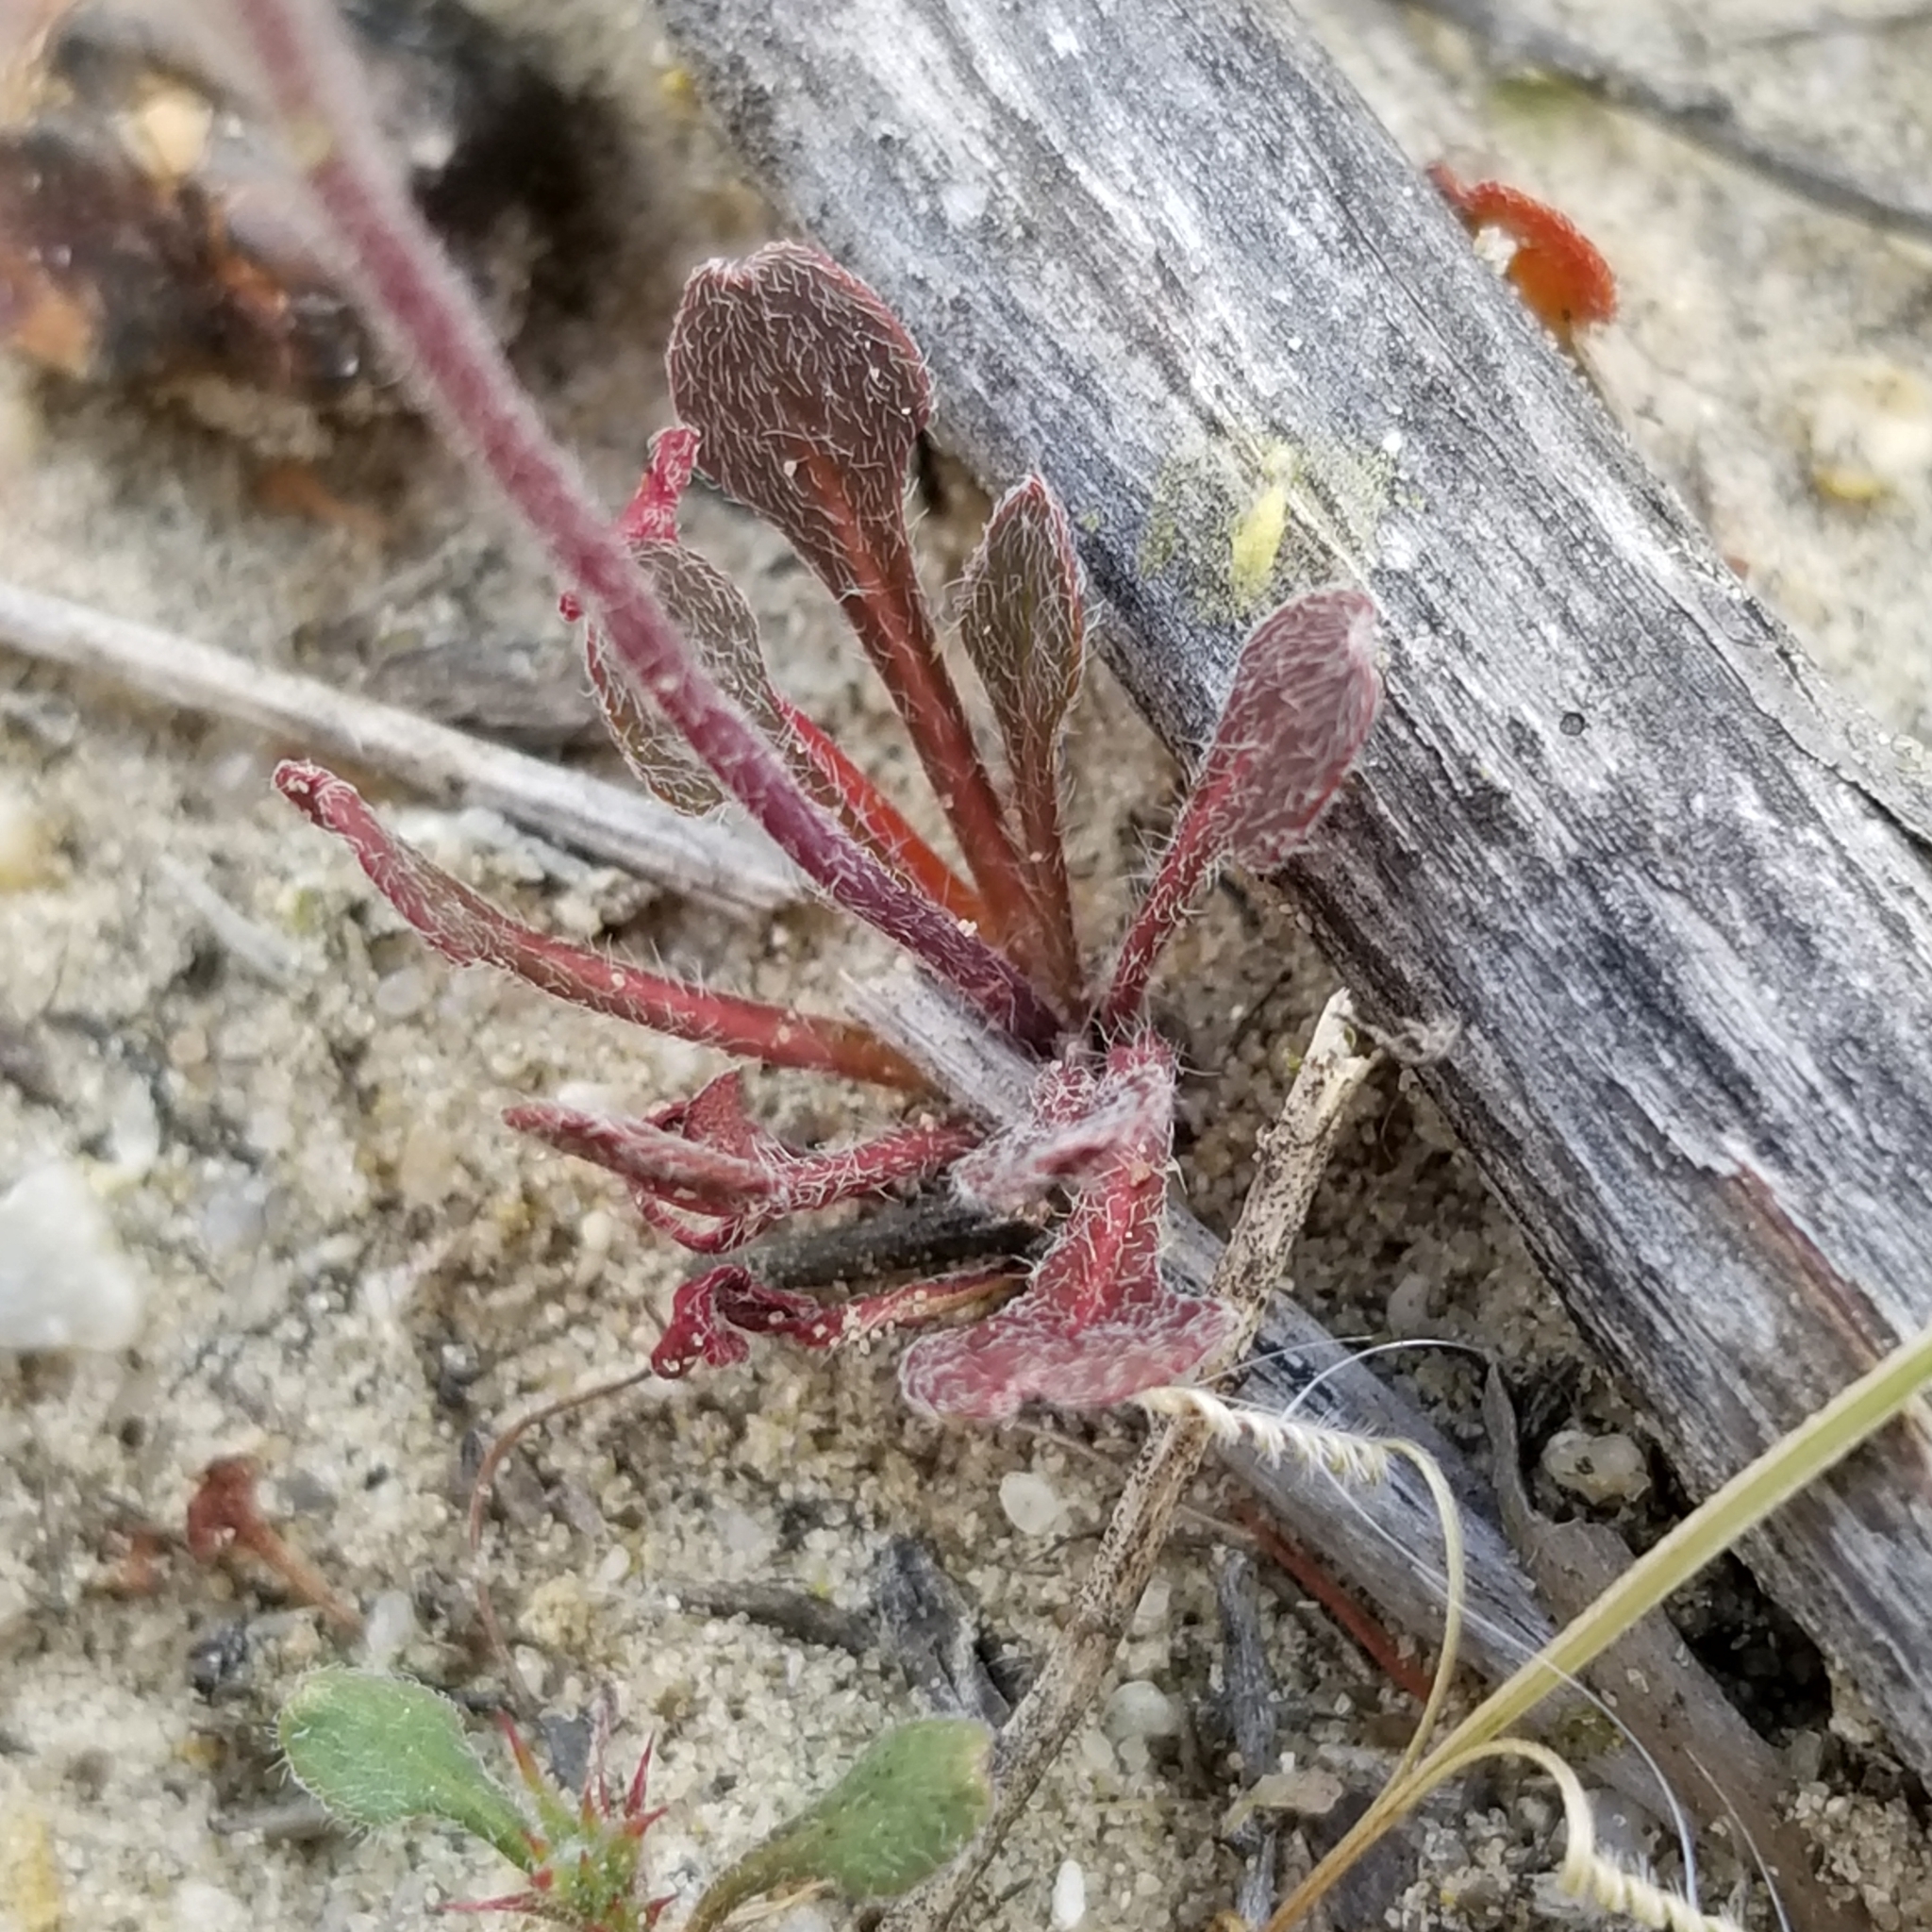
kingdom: Plantae
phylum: Tracheophyta
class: Magnoliopsida
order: Caryophyllales
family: Polygonaceae
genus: Chorizanthe
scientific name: Chorizanthe fimbriata
